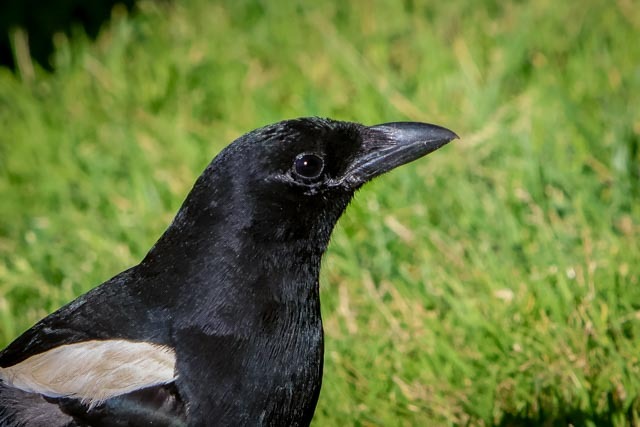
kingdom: Animalia
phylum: Chordata
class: Aves
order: Passeriformes
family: Corvidae
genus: Pica
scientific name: Pica hudsonia
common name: Black-billed magpie
